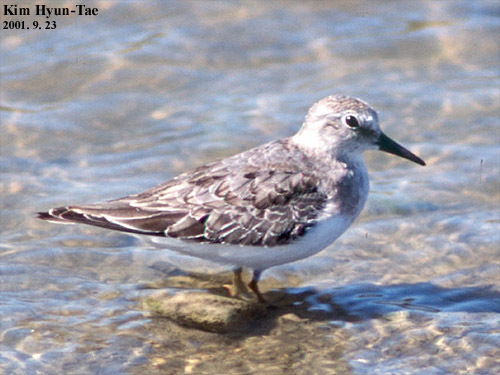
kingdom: Animalia
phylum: Chordata
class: Aves
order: Charadriiformes
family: Scolopacidae
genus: Calidris
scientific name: Calidris temminckii
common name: Temminck's stint
